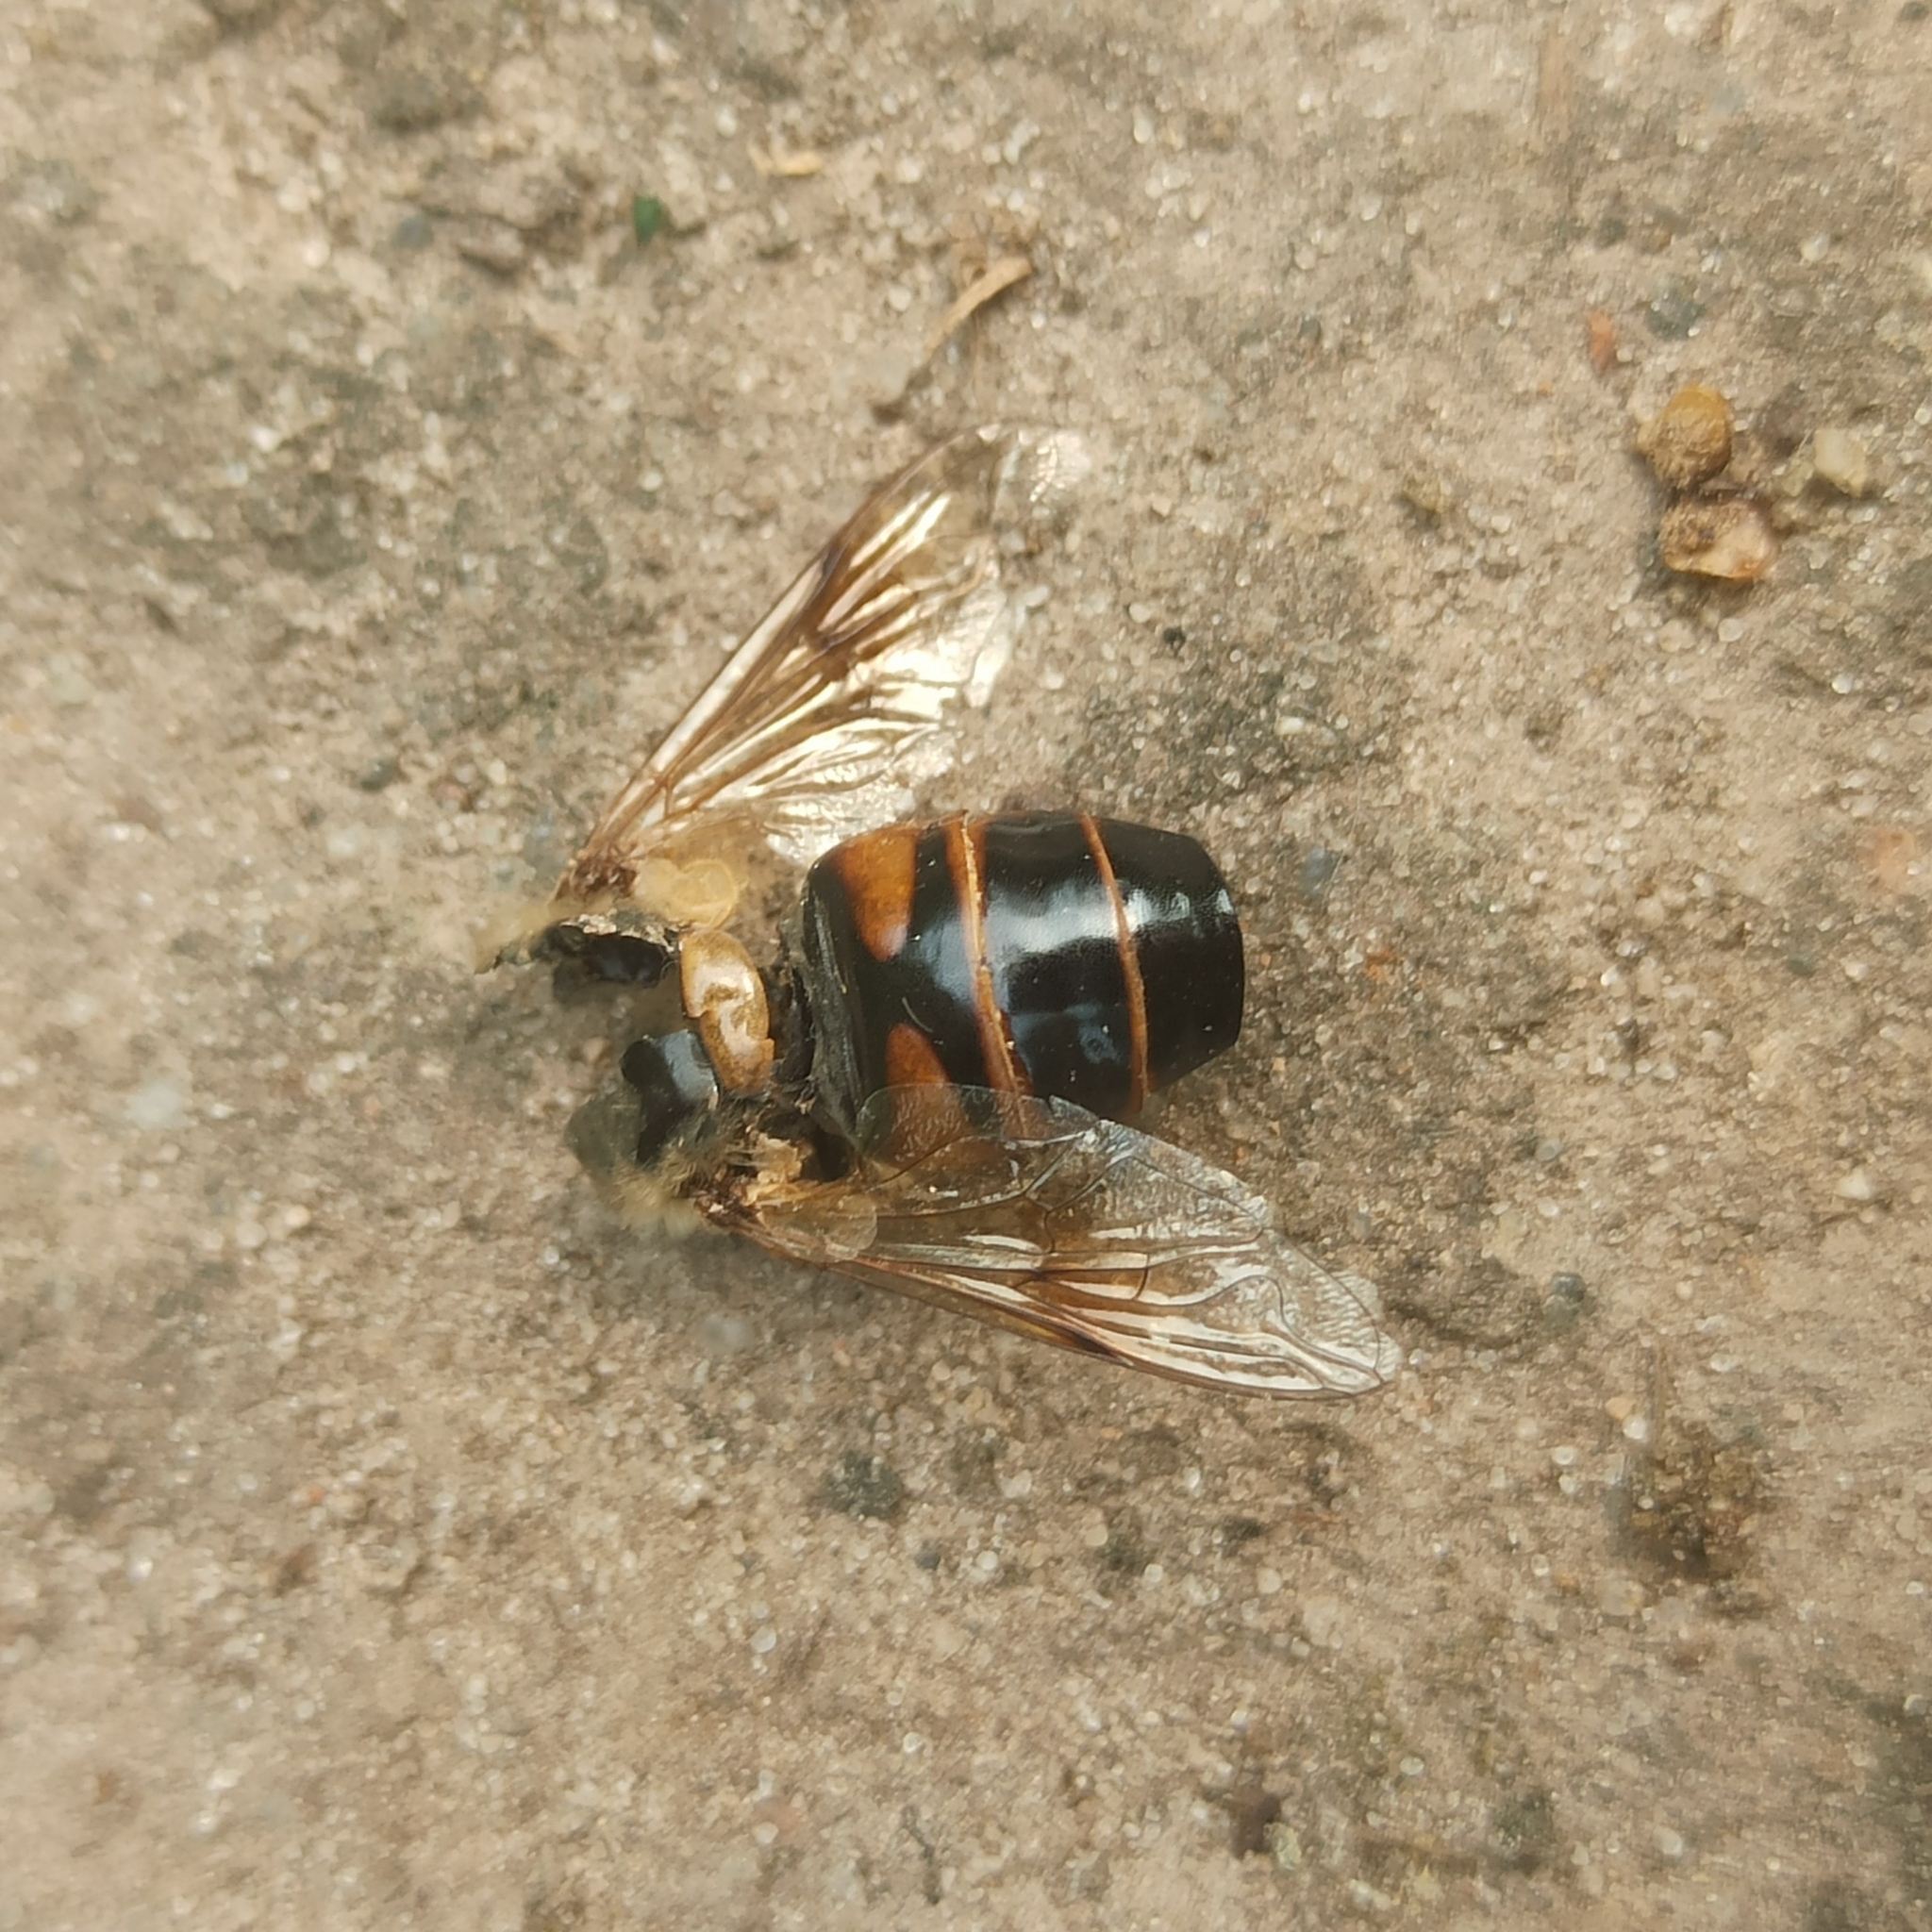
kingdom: Animalia
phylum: Arthropoda
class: Insecta
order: Diptera
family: Syrphidae
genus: Eristalis
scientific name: Eristalis tenax
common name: Drone fly
